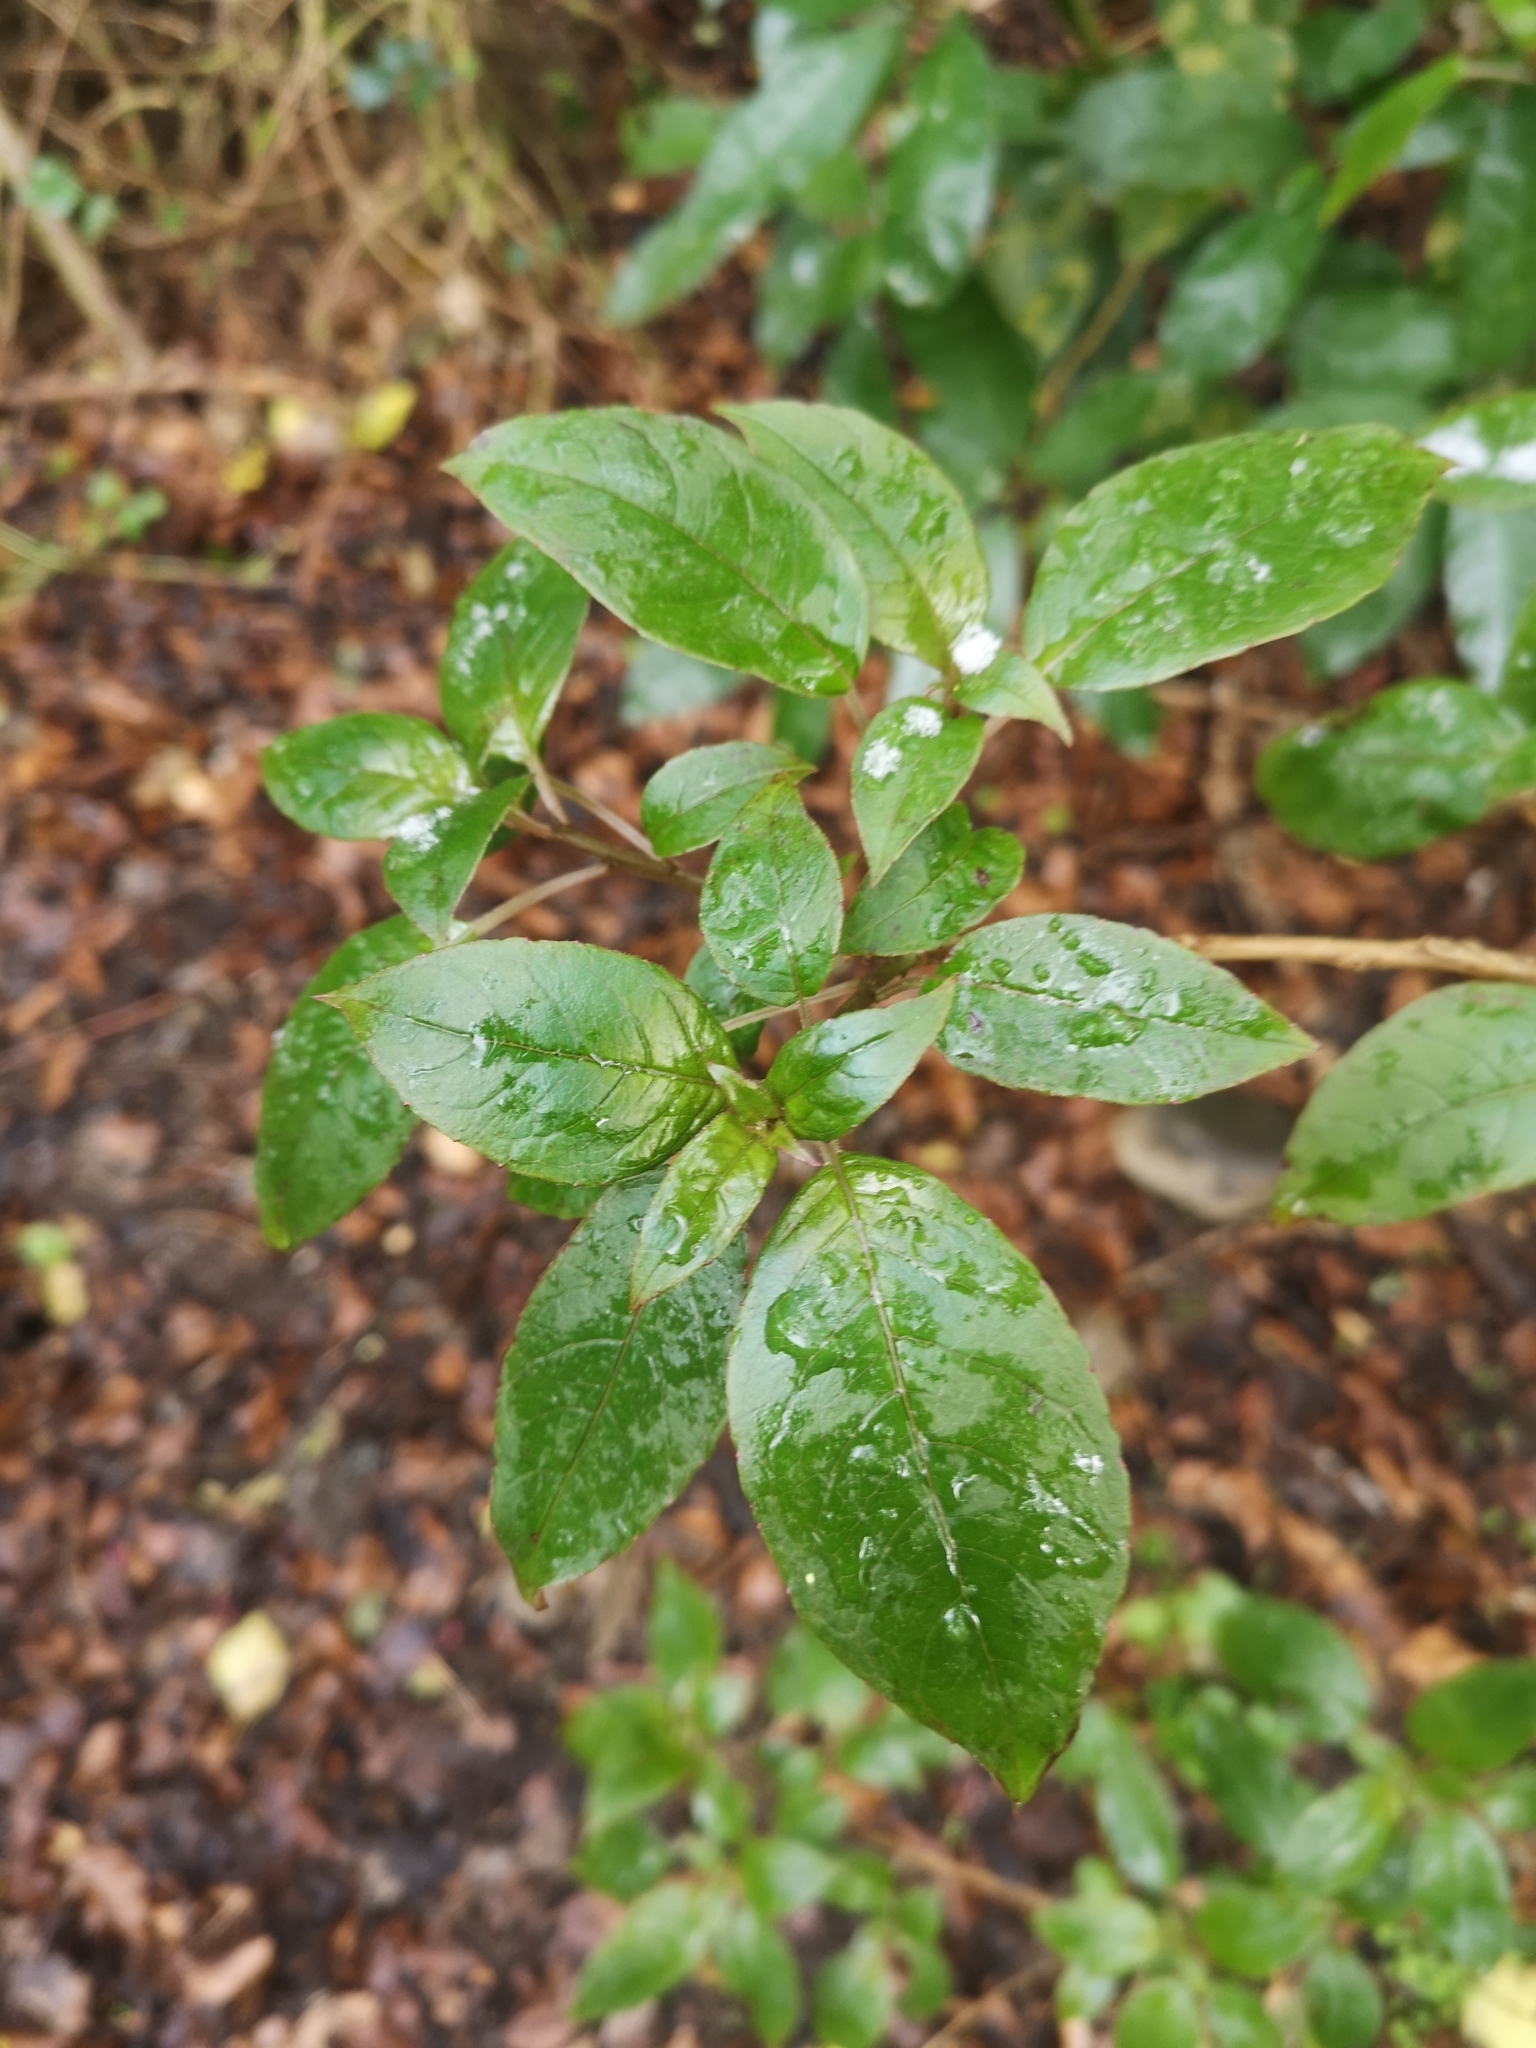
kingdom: Plantae
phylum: Tracheophyta
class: Magnoliopsida
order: Myrtales
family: Onagraceae
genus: Fuchsia
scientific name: Fuchsia excorticata
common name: Tree fuchsia
